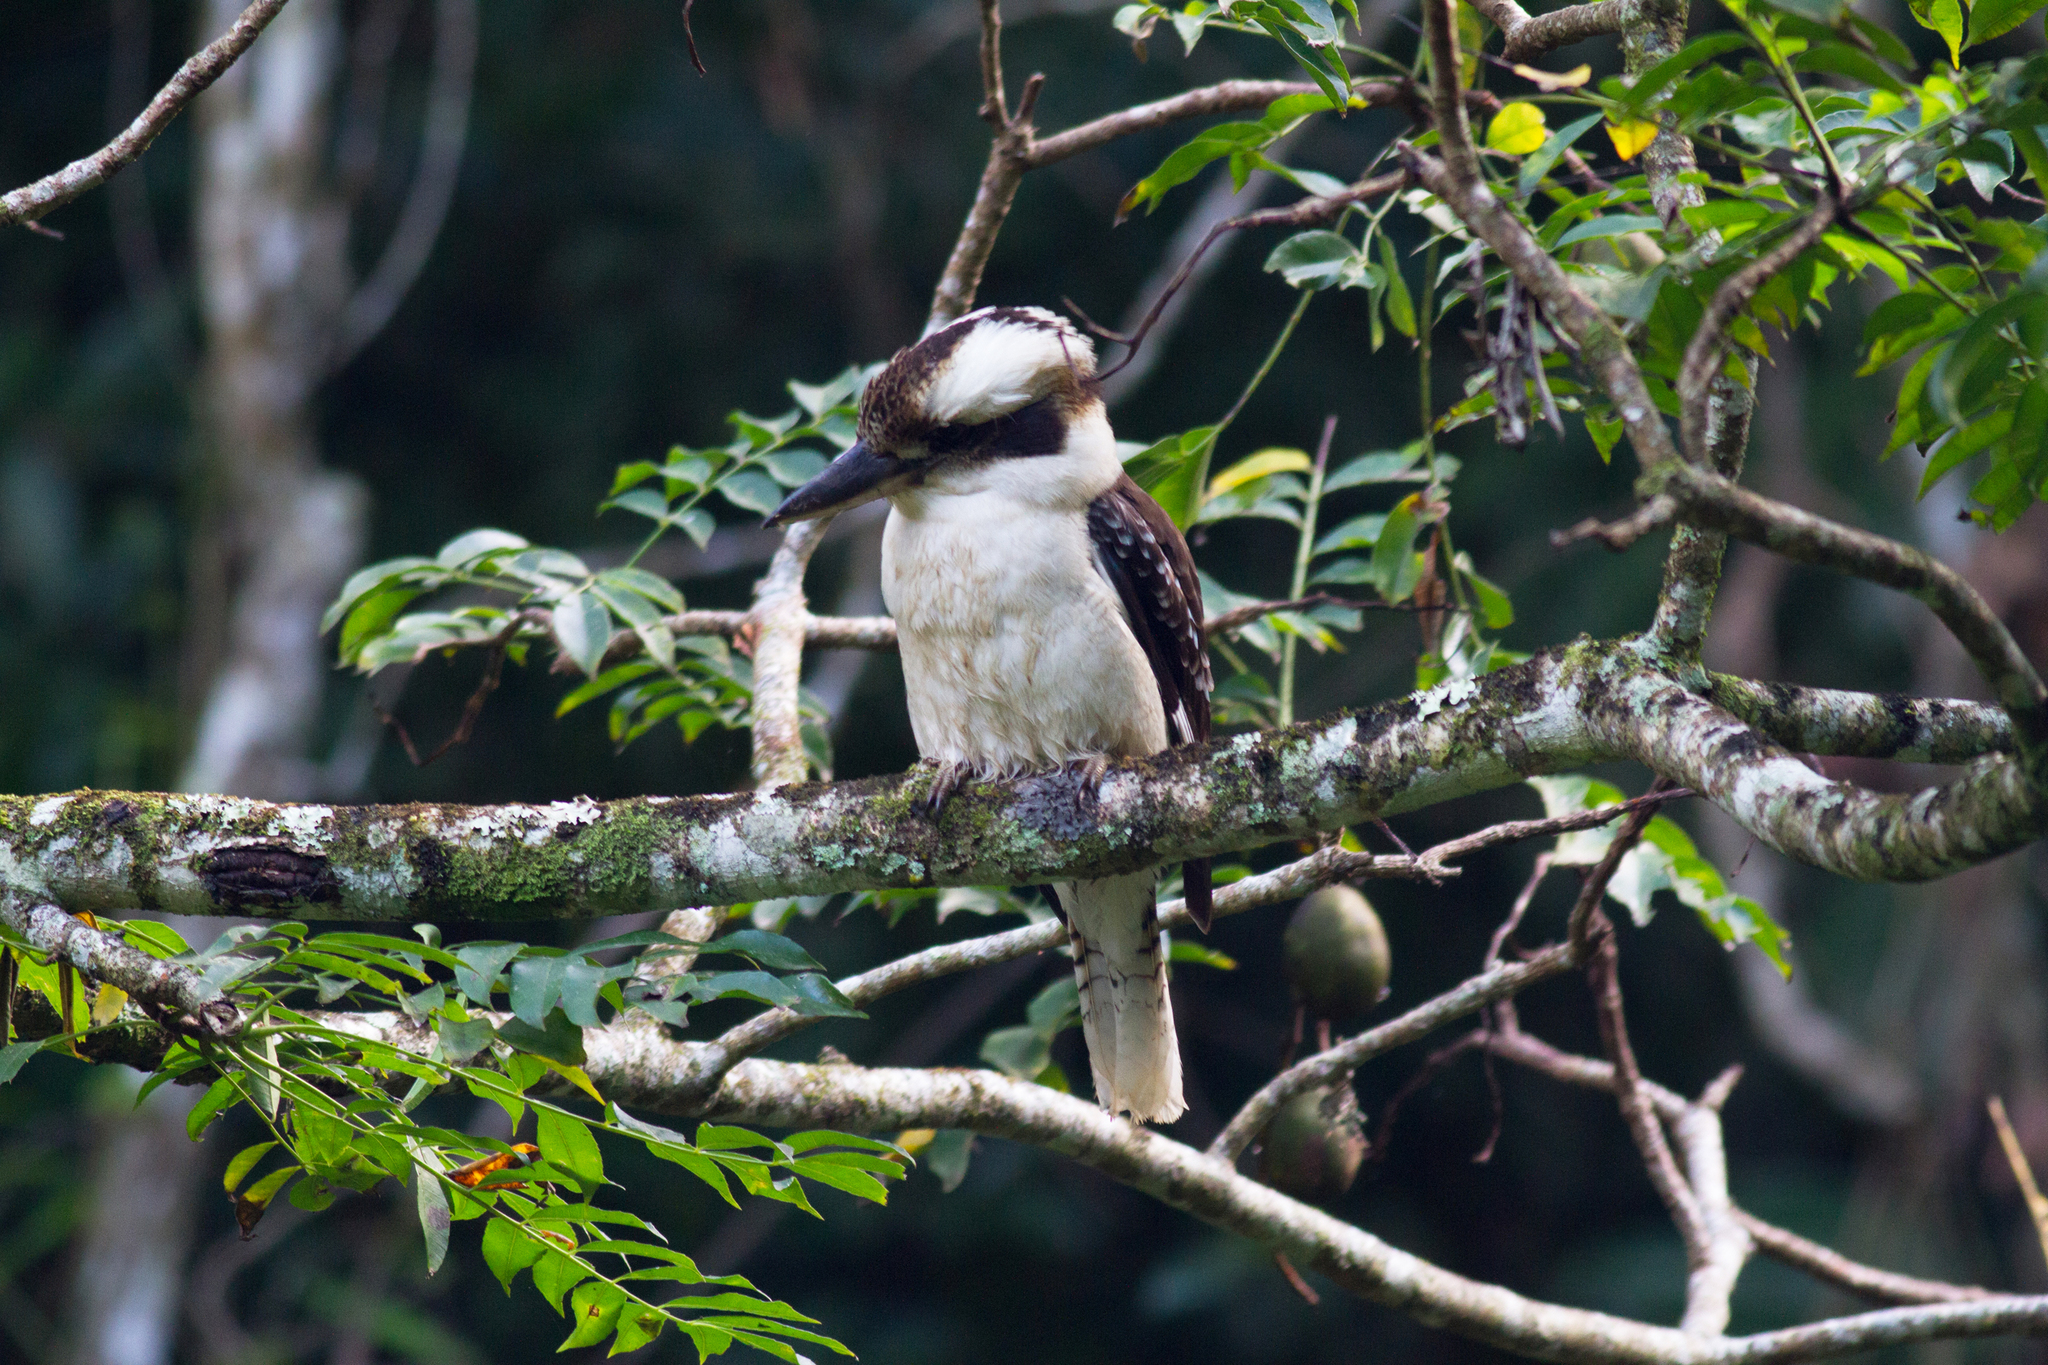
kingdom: Animalia
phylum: Chordata
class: Aves
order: Coraciiformes
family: Alcedinidae
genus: Dacelo
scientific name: Dacelo novaeguineae
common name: Laughing kookaburra
